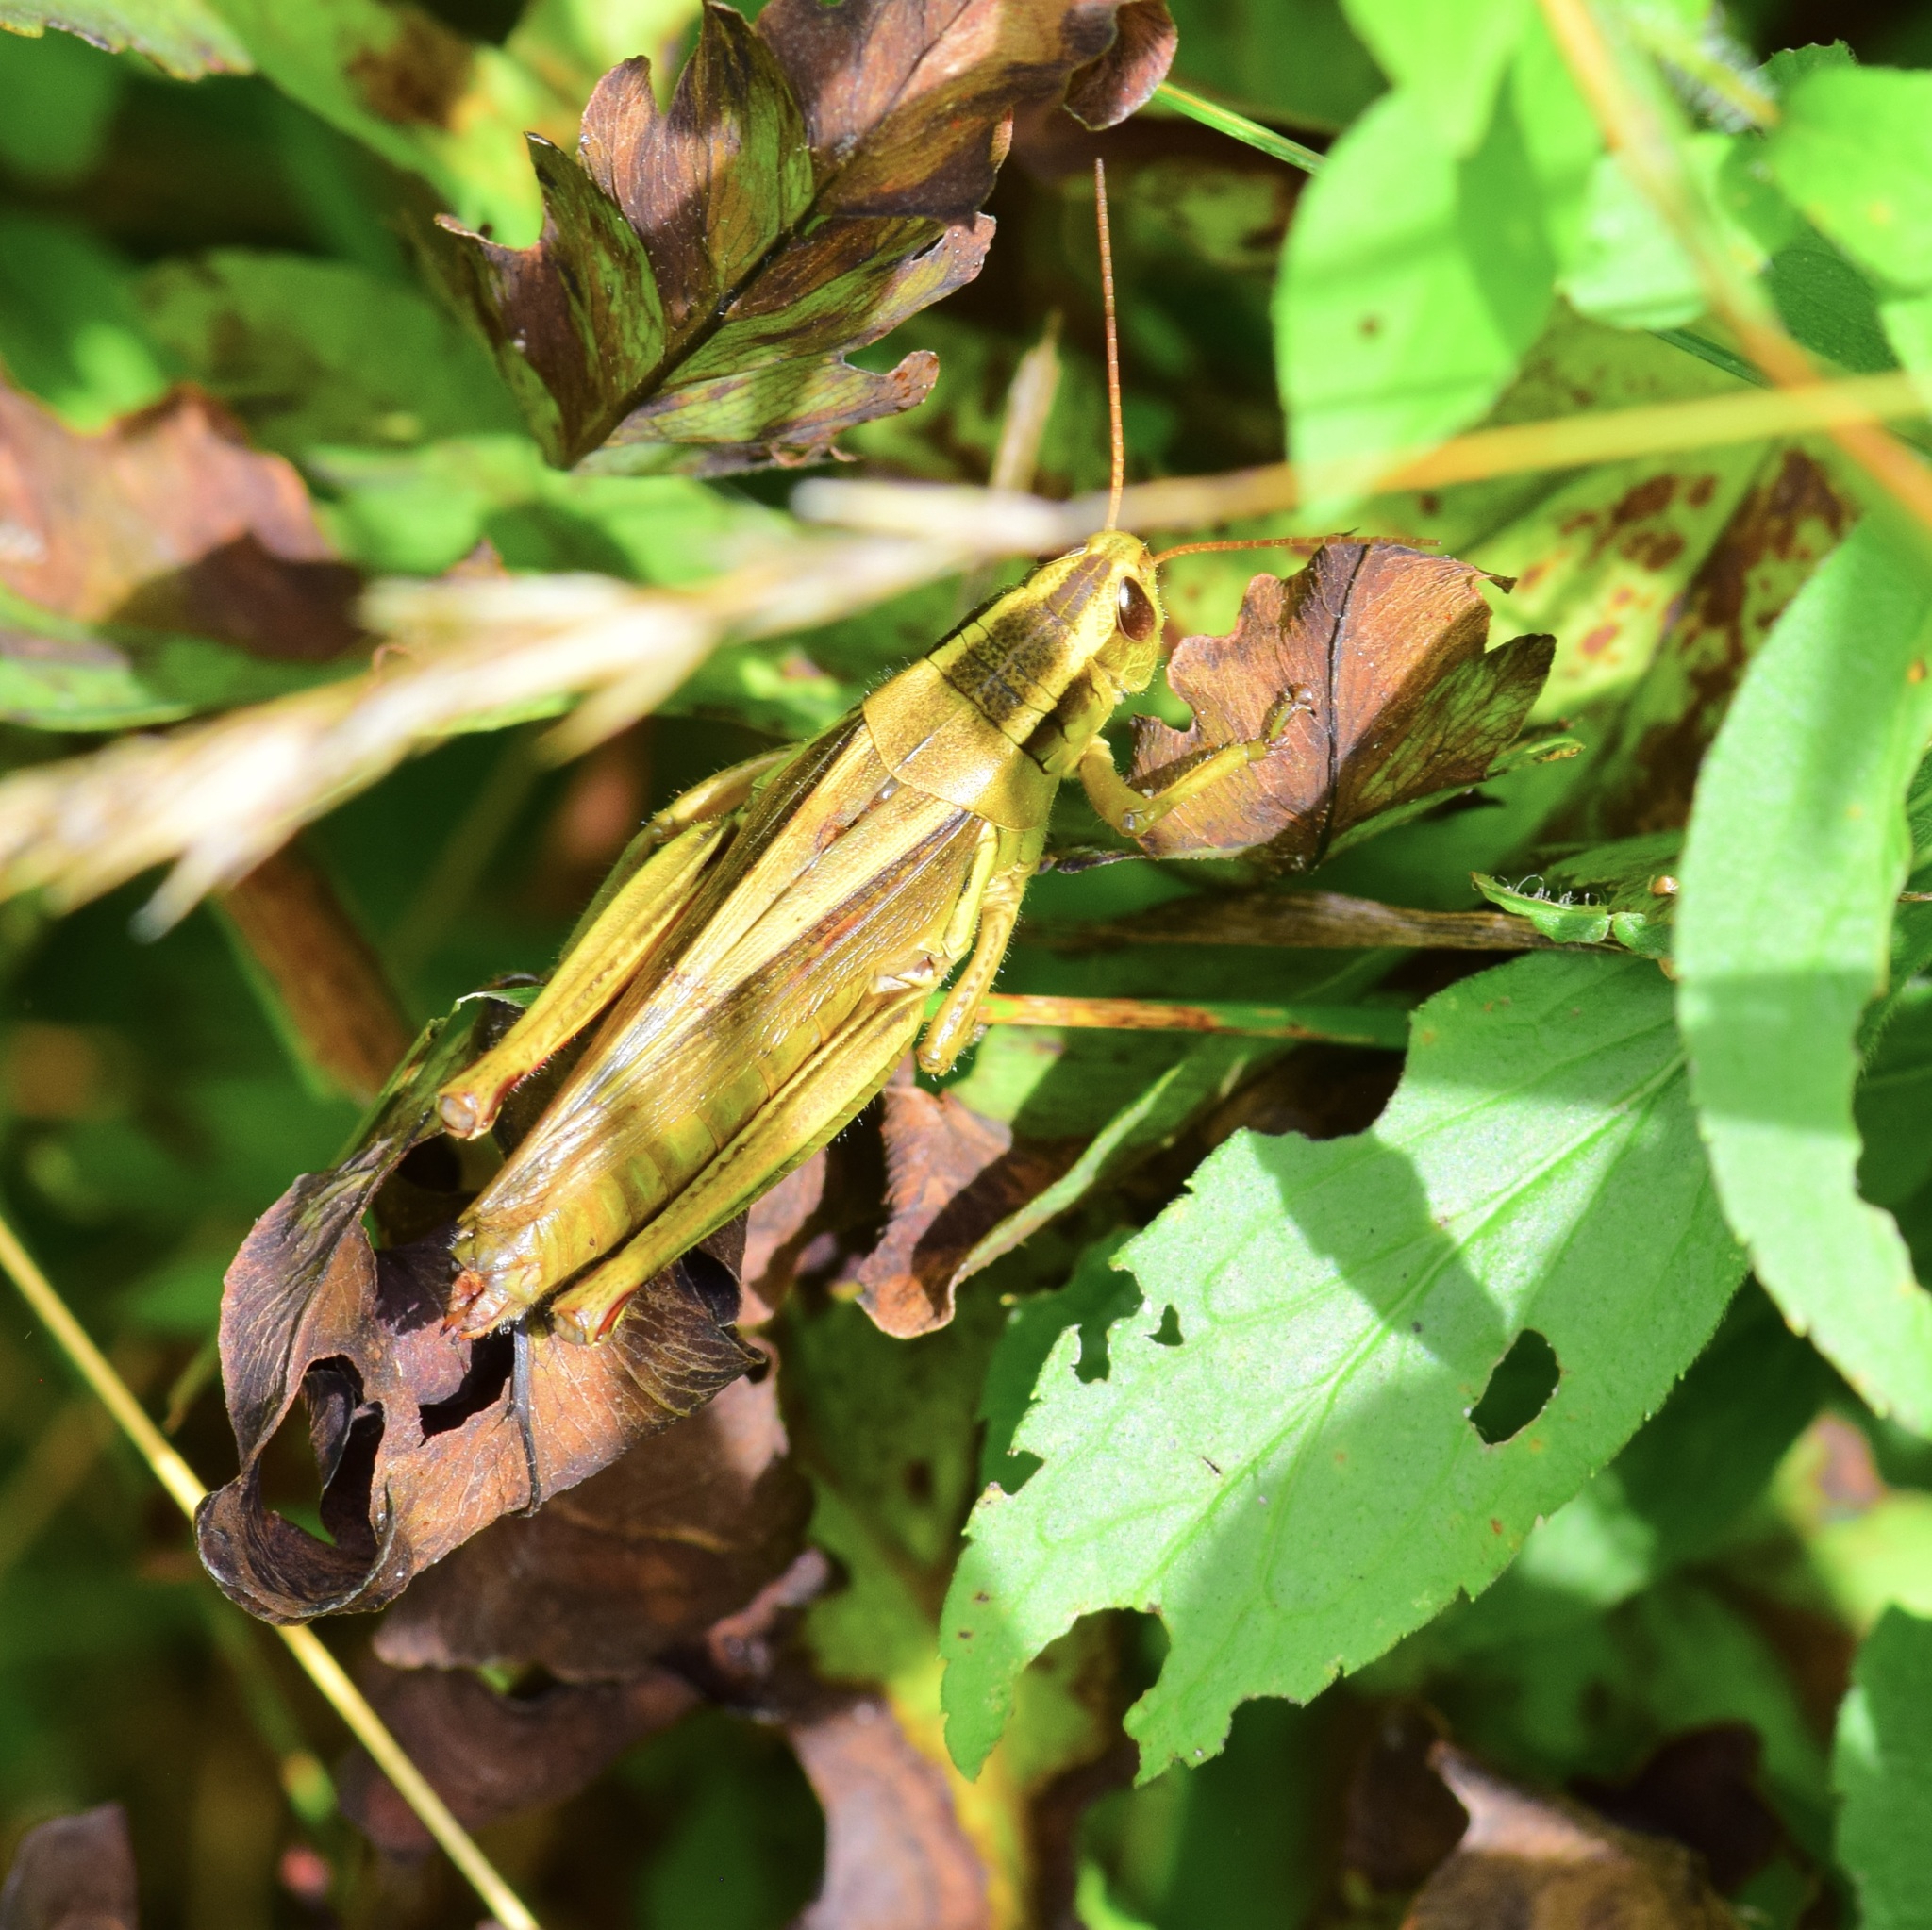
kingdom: Animalia
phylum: Arthropoda
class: Insecta
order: Orthoptera
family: Acrididae
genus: Melanoplus
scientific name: Melanoplus bivittatus
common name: Two-striped grasshopper
